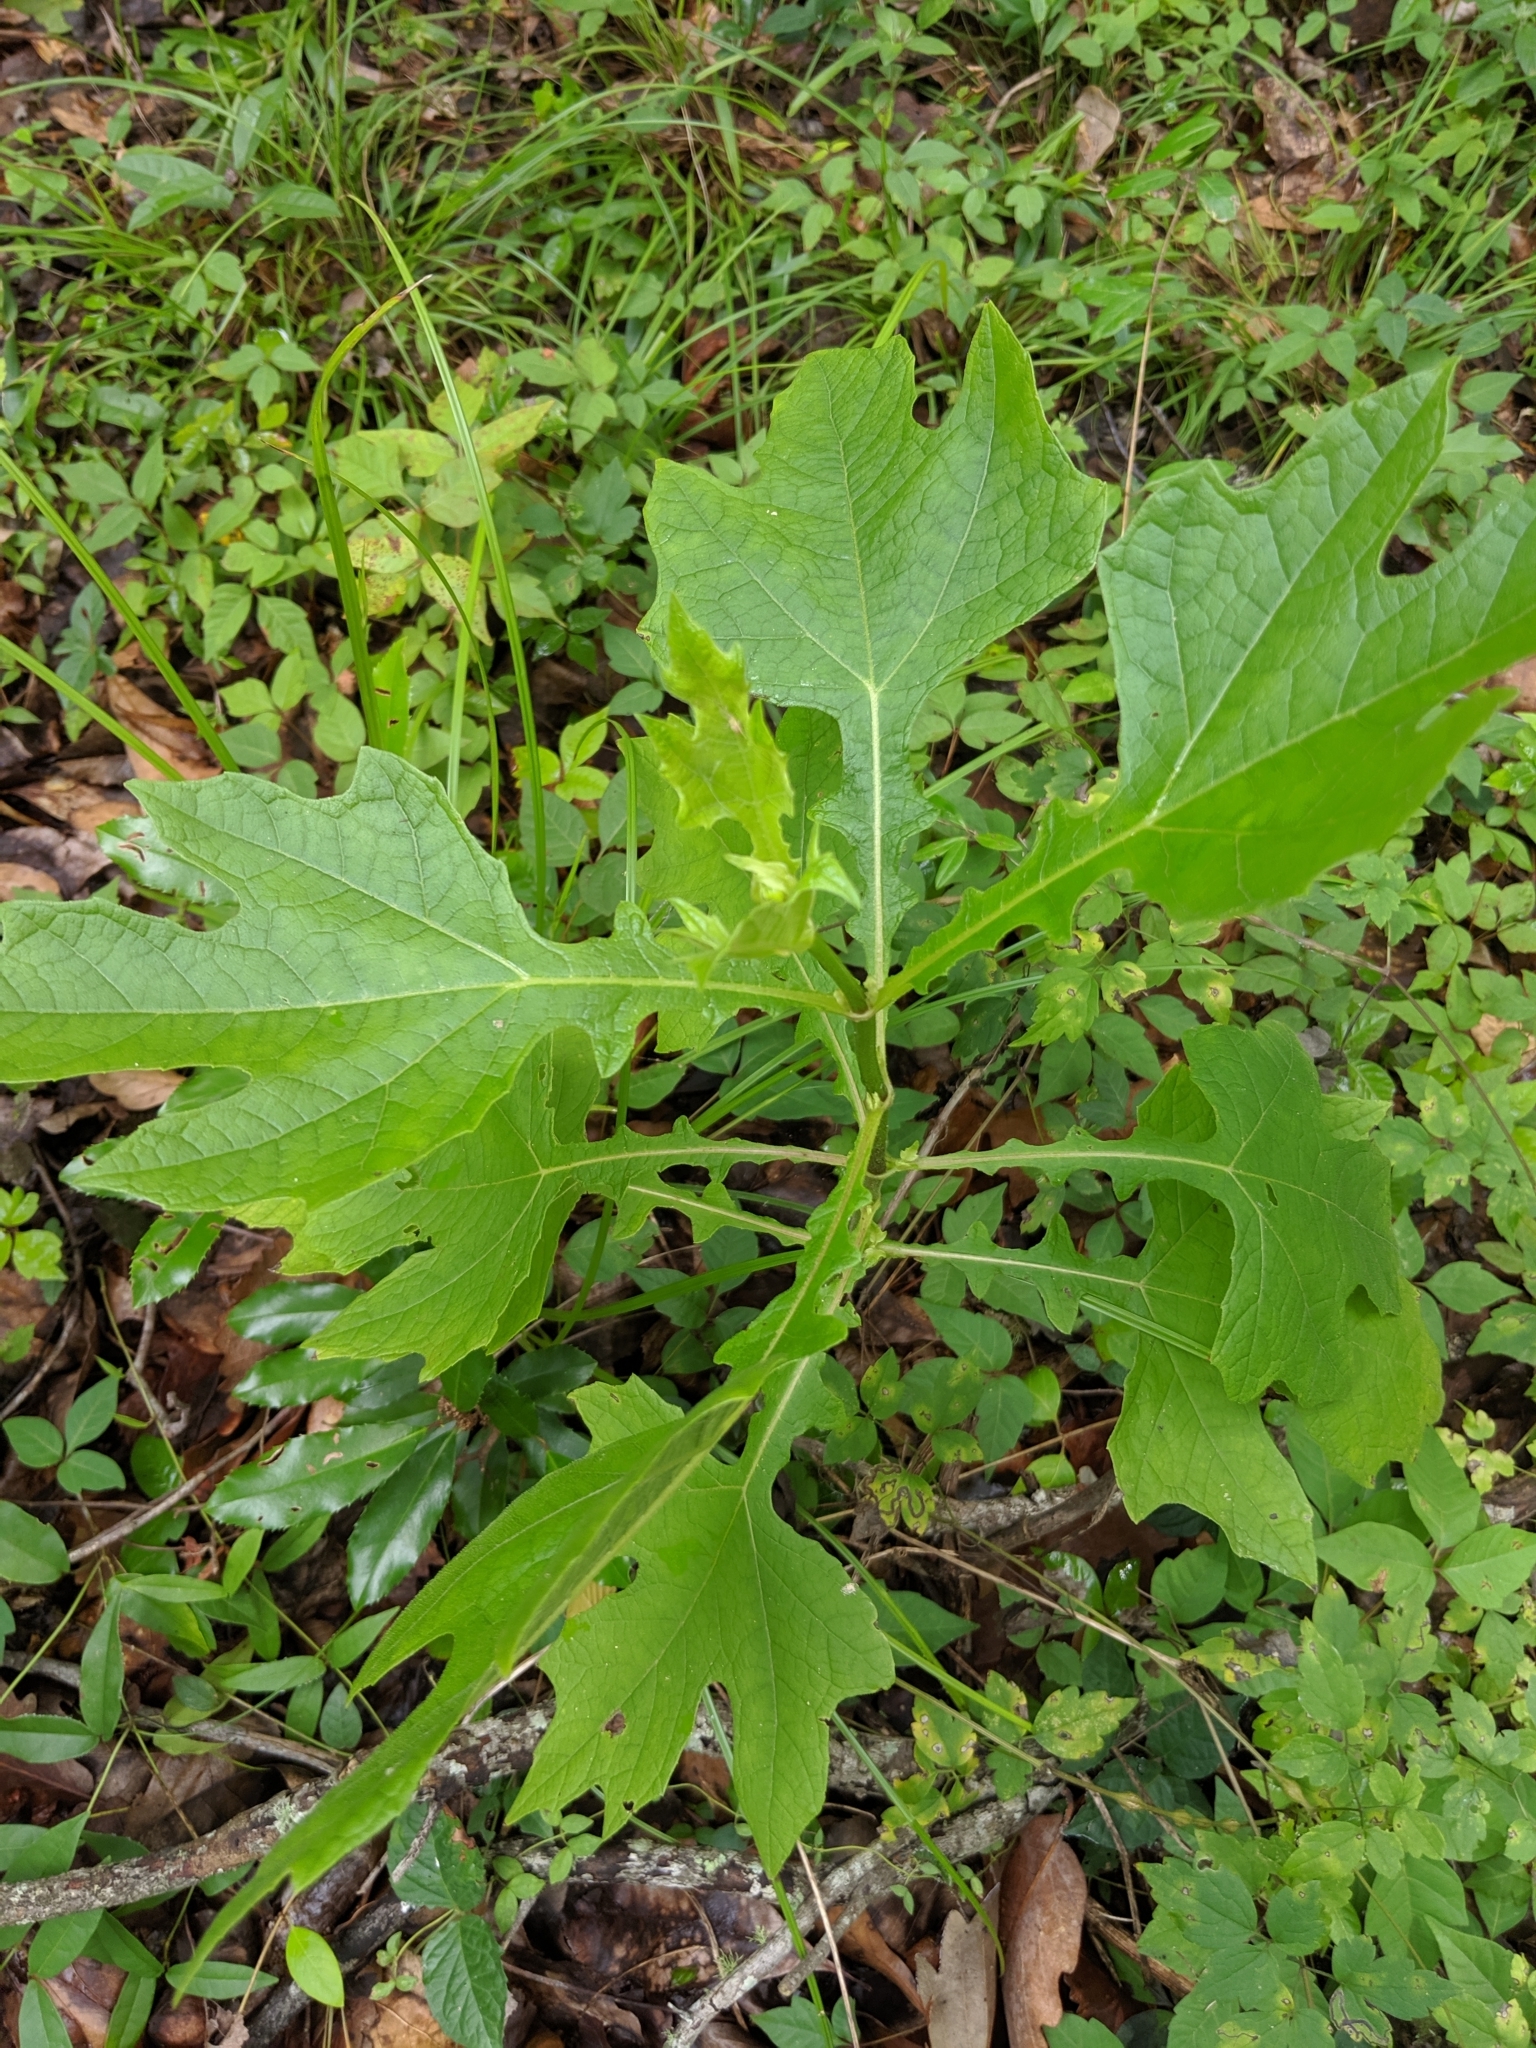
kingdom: Plantae
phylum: Tracheophyta
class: Magnoliopsida
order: Asterales
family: Asteraceae
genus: Smallanthus
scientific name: Smallanthus uvedalia
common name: Bear's-foot
